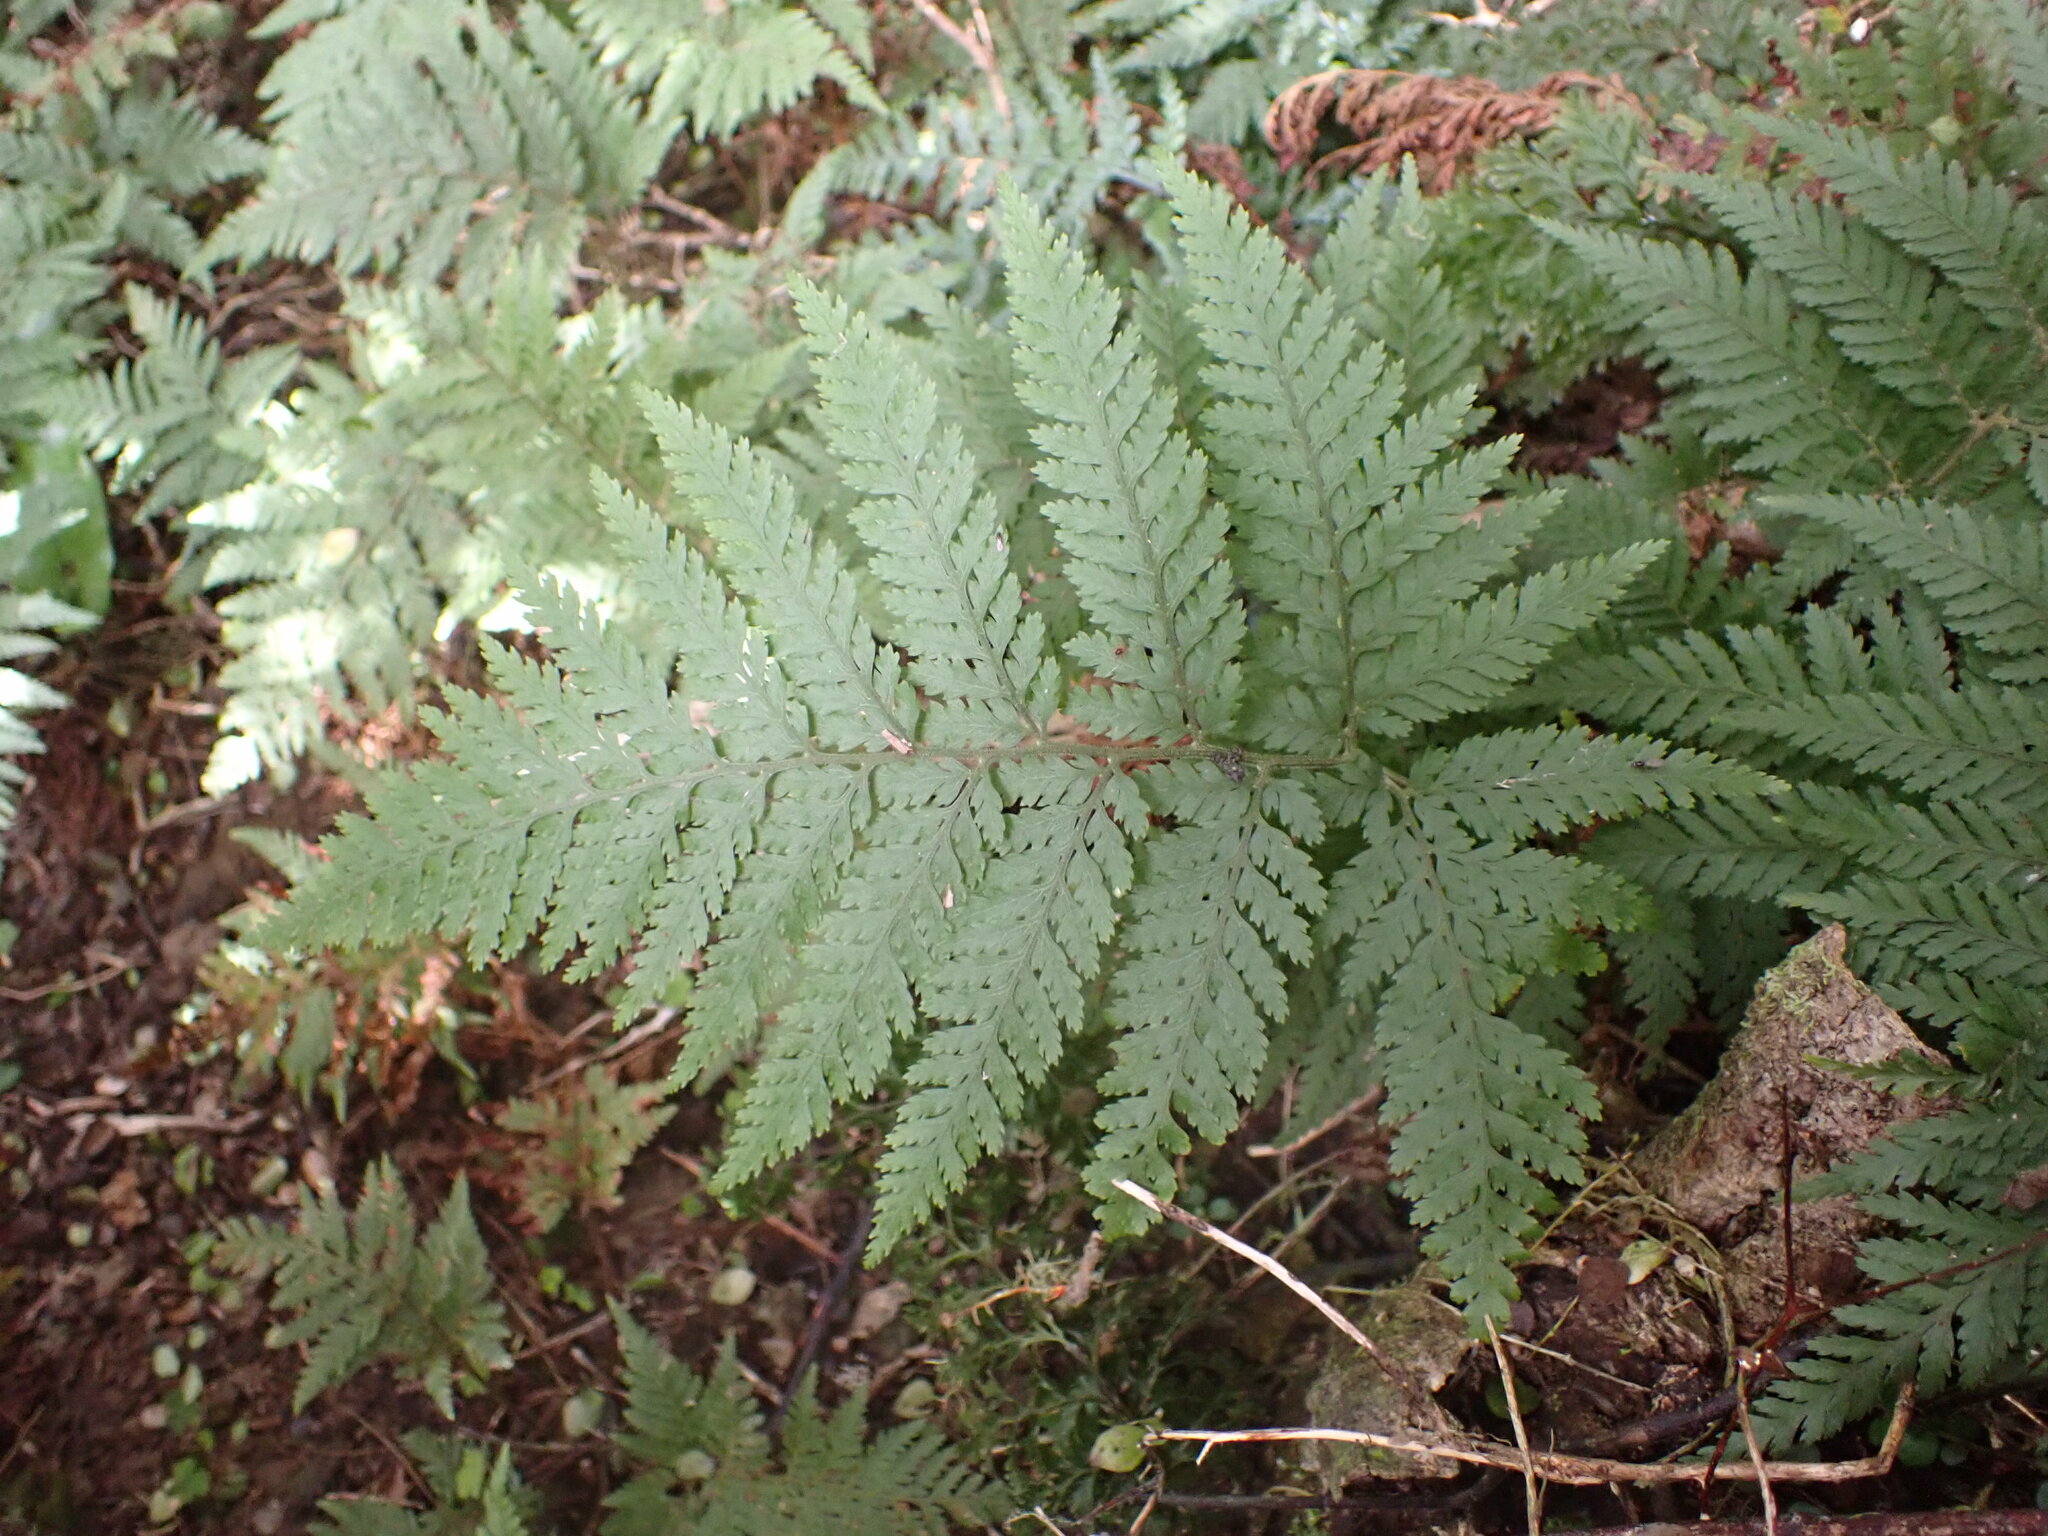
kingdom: Plantae
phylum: Tracheophyta
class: Polypodiopsida
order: Polypodiales
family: Dryopteridaceae
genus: Parapolystichum
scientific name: Parapolystichum microsorum
